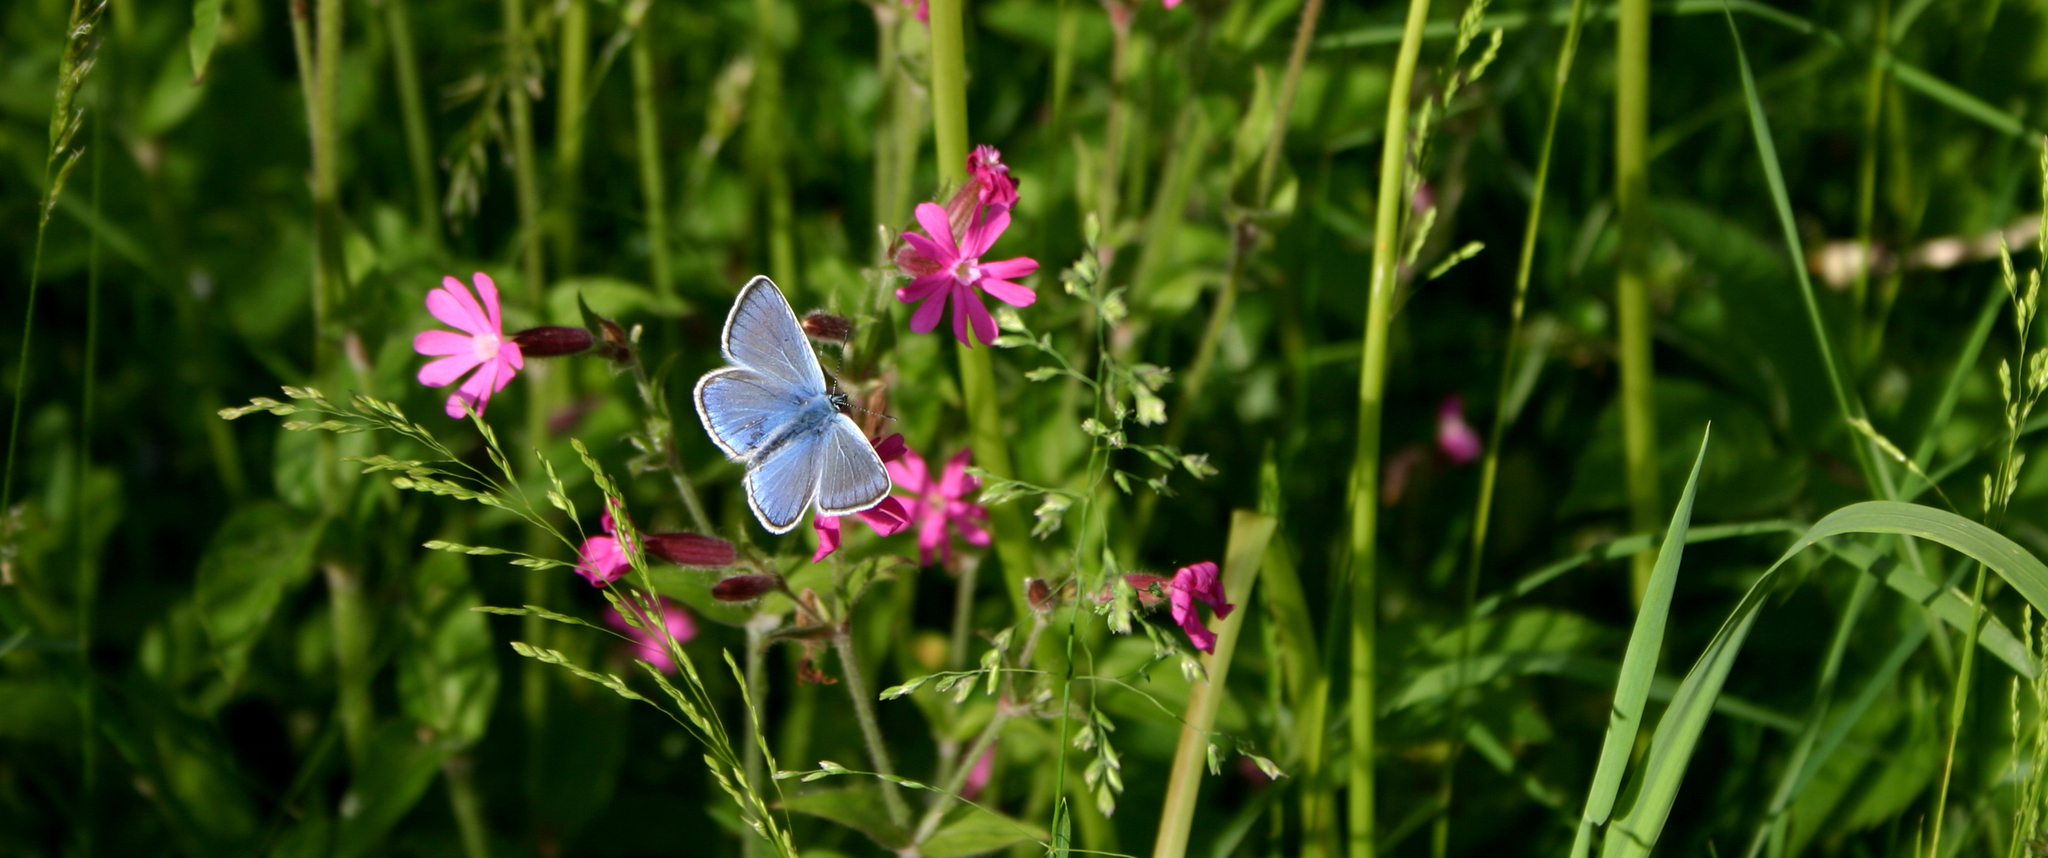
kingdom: Animalia
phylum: Arthropoda
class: Insecta
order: Lepidoptera
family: Lycaenidae
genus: Plebejus
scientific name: Plebejus amanda
